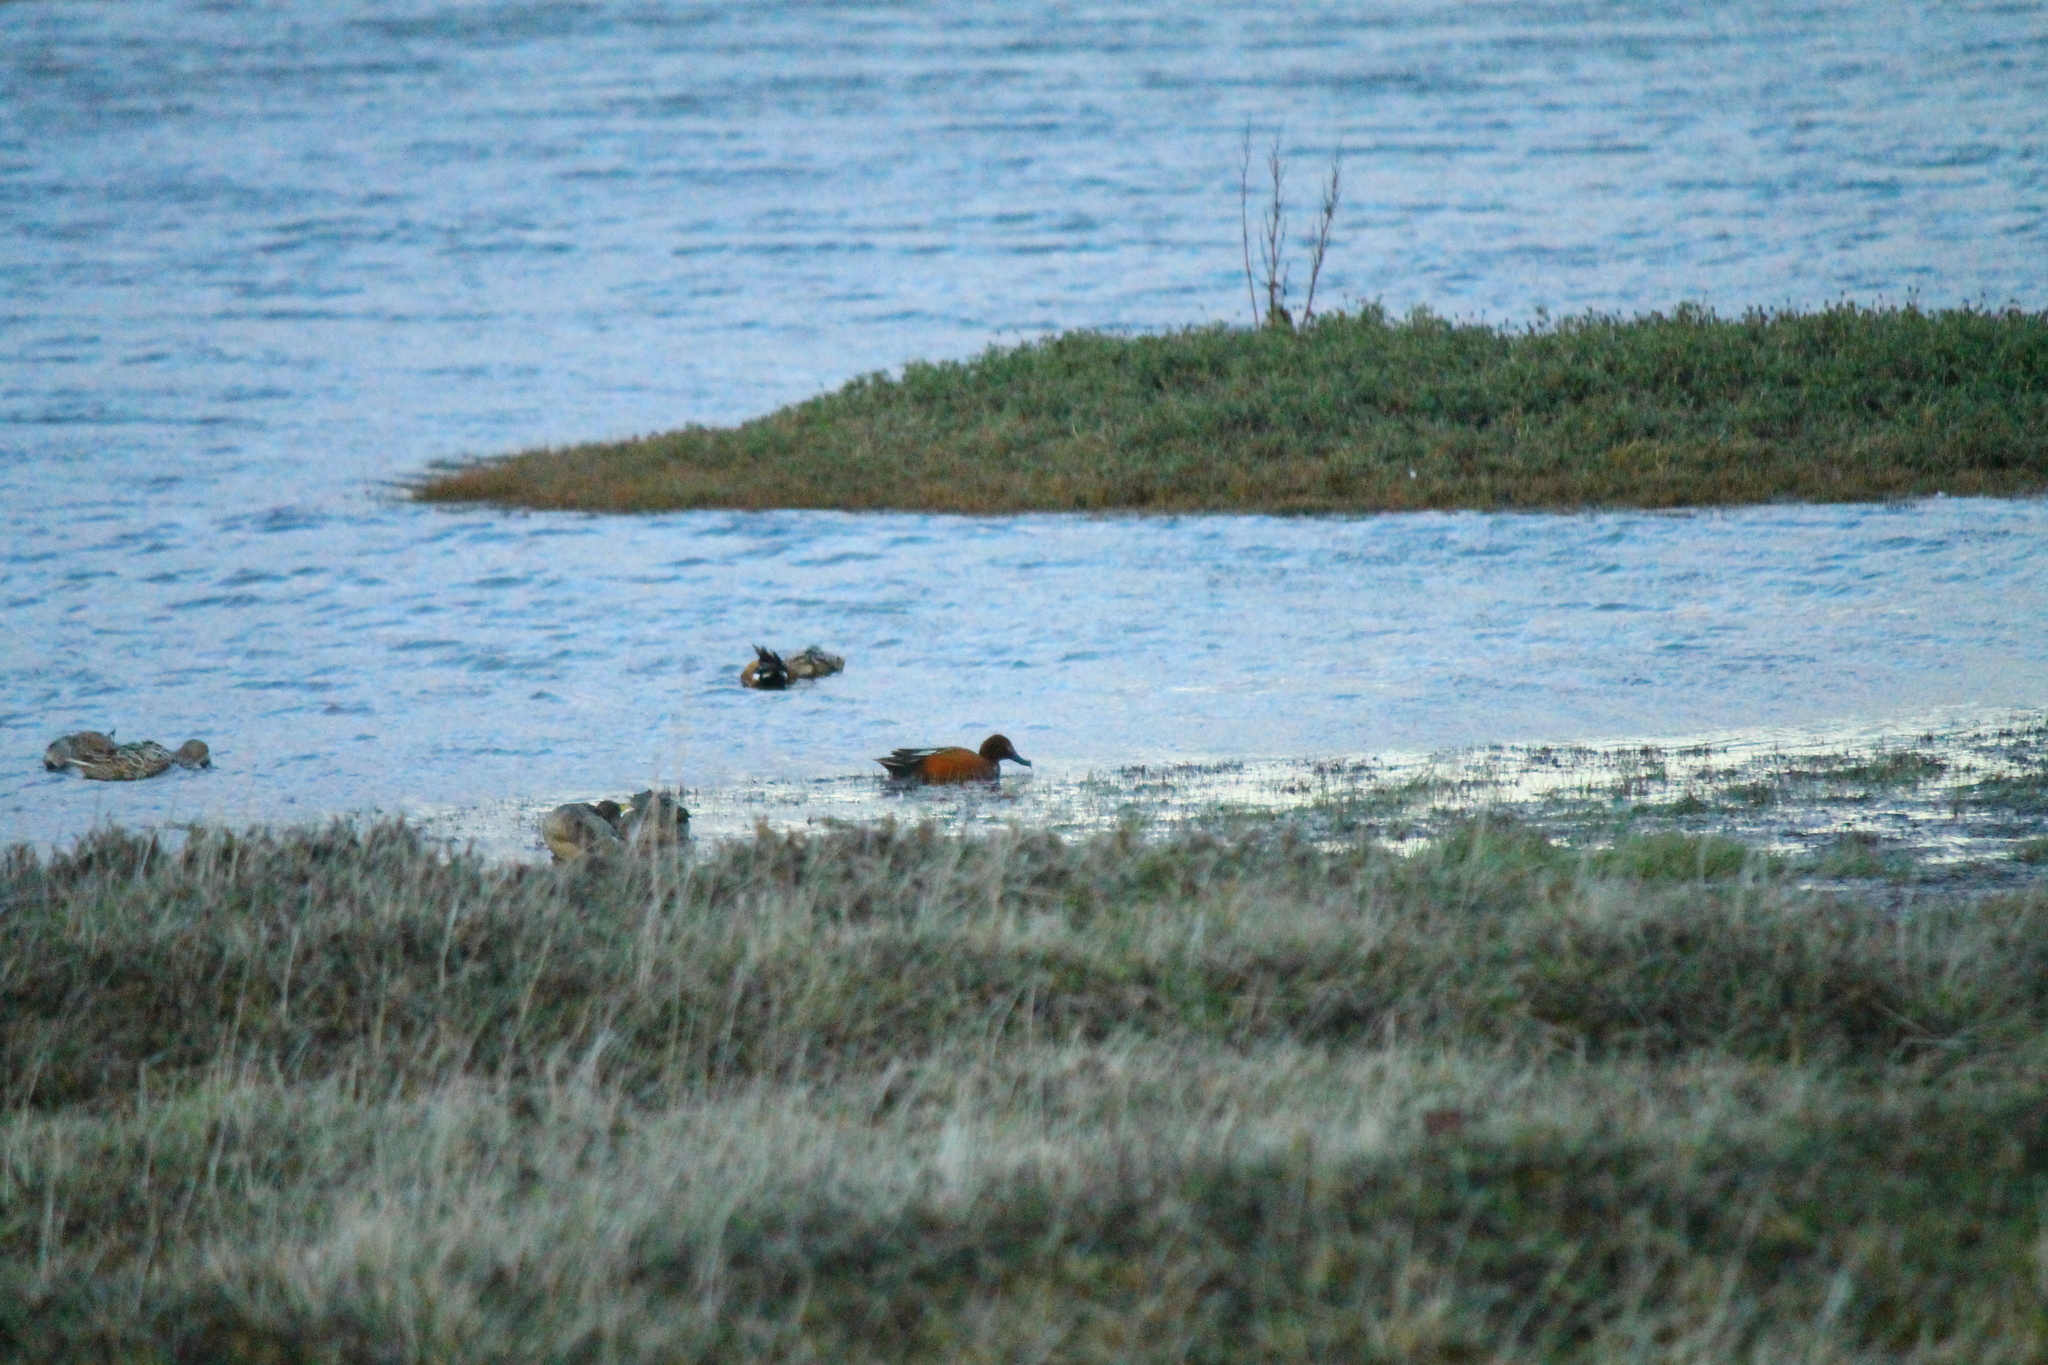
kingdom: Animalia
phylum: Chordata
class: Aves
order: Anseriformes
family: Anatidae
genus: Spatula
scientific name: Spatula cyanoptera
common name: Cinnamon teal
